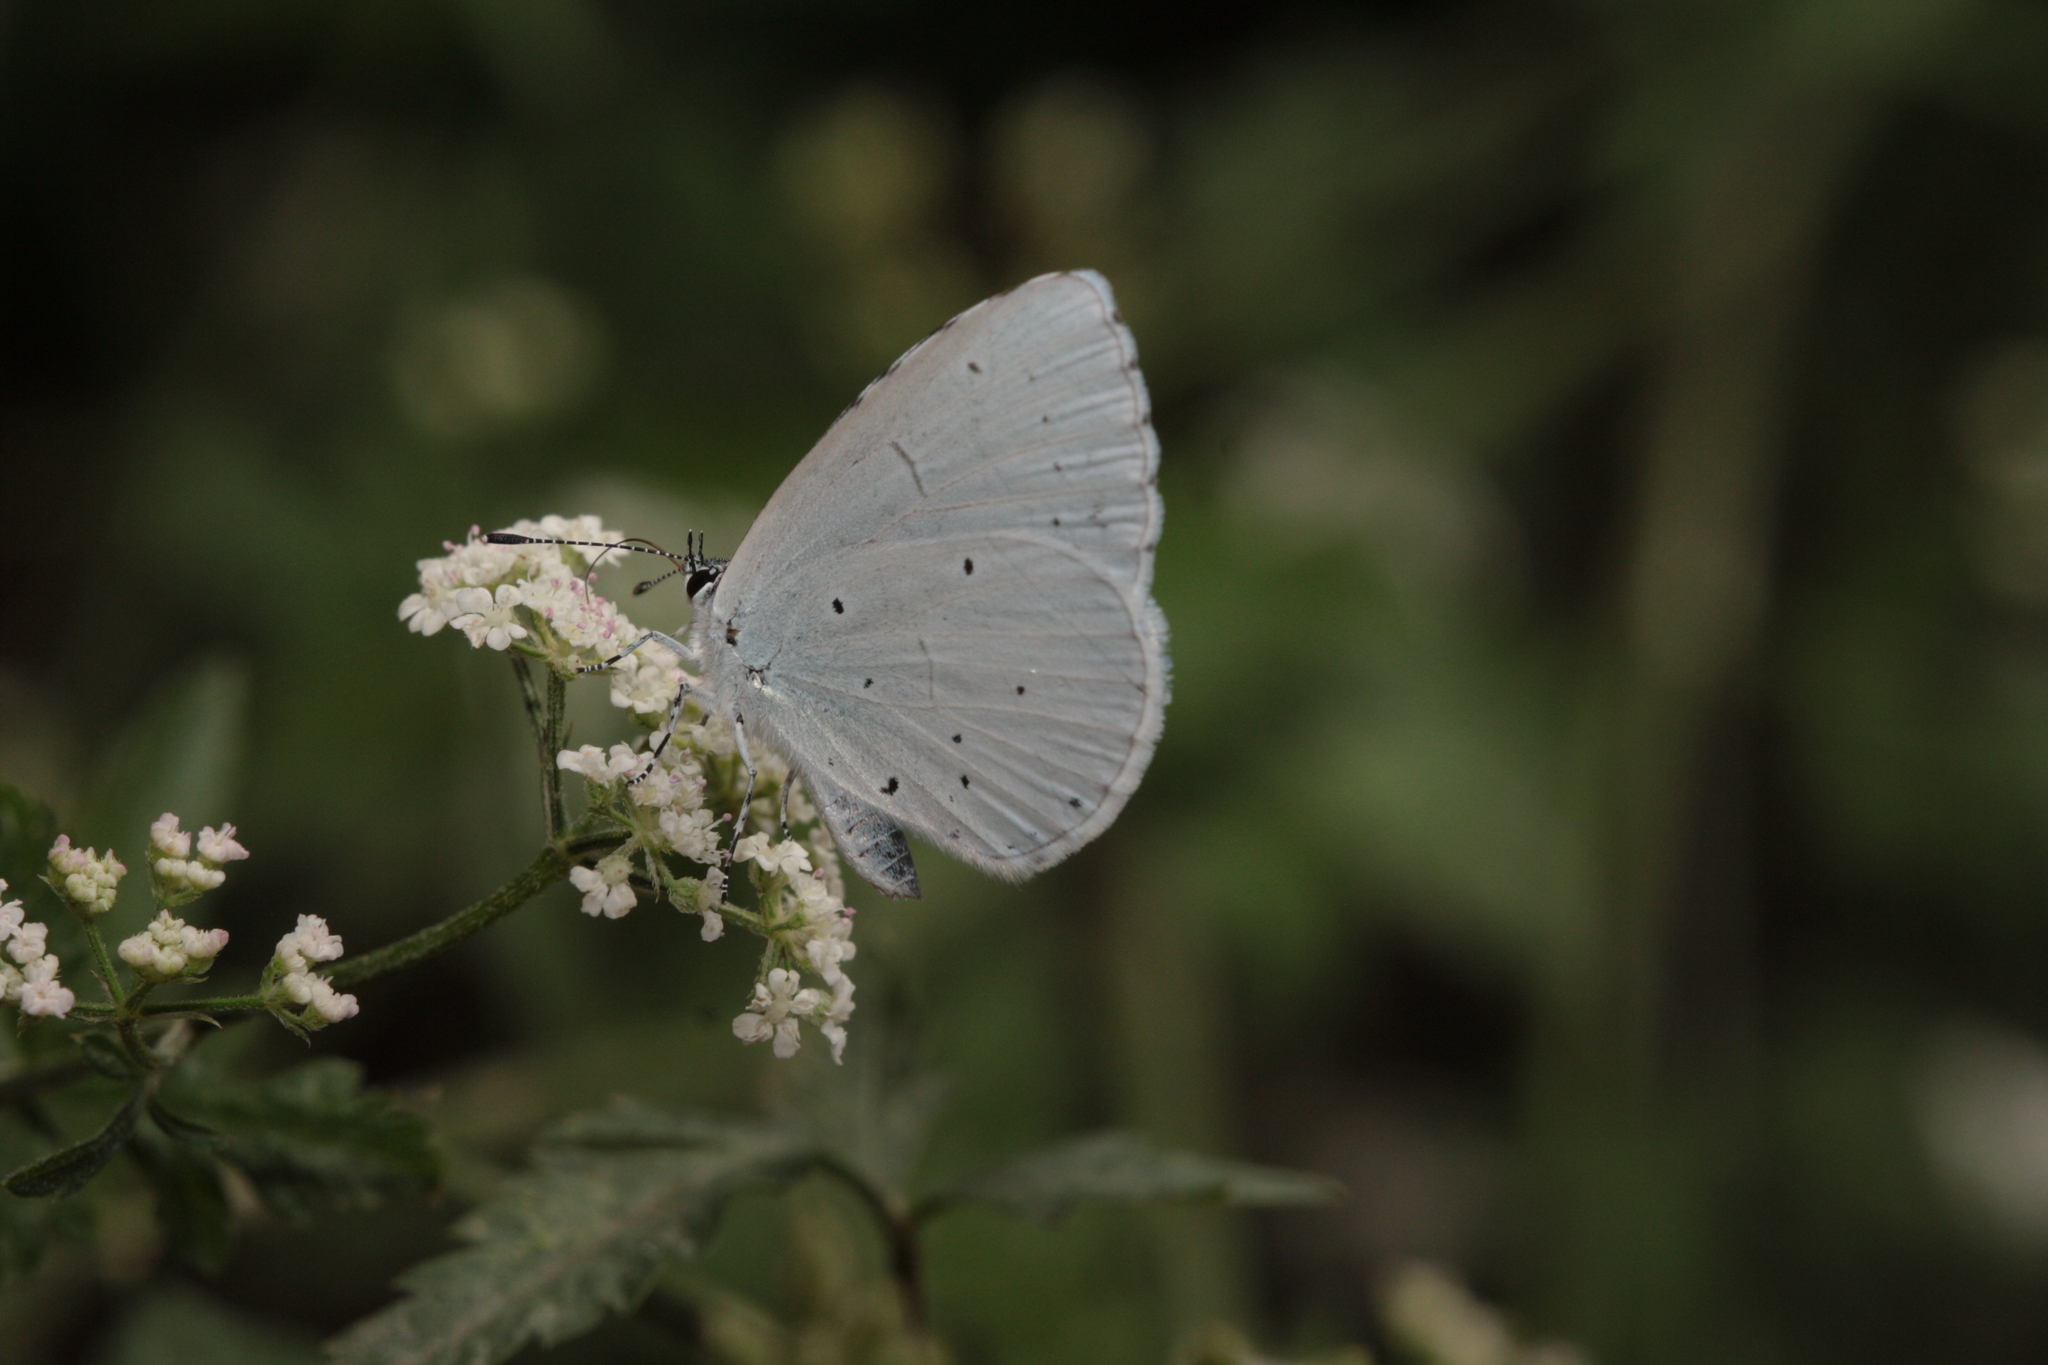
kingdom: Animalia
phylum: Arthropoda
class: Insecta
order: Lepidoptera
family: Lycaenidae
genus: Celastrina
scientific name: Celastrina argiolus
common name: Holly blue
